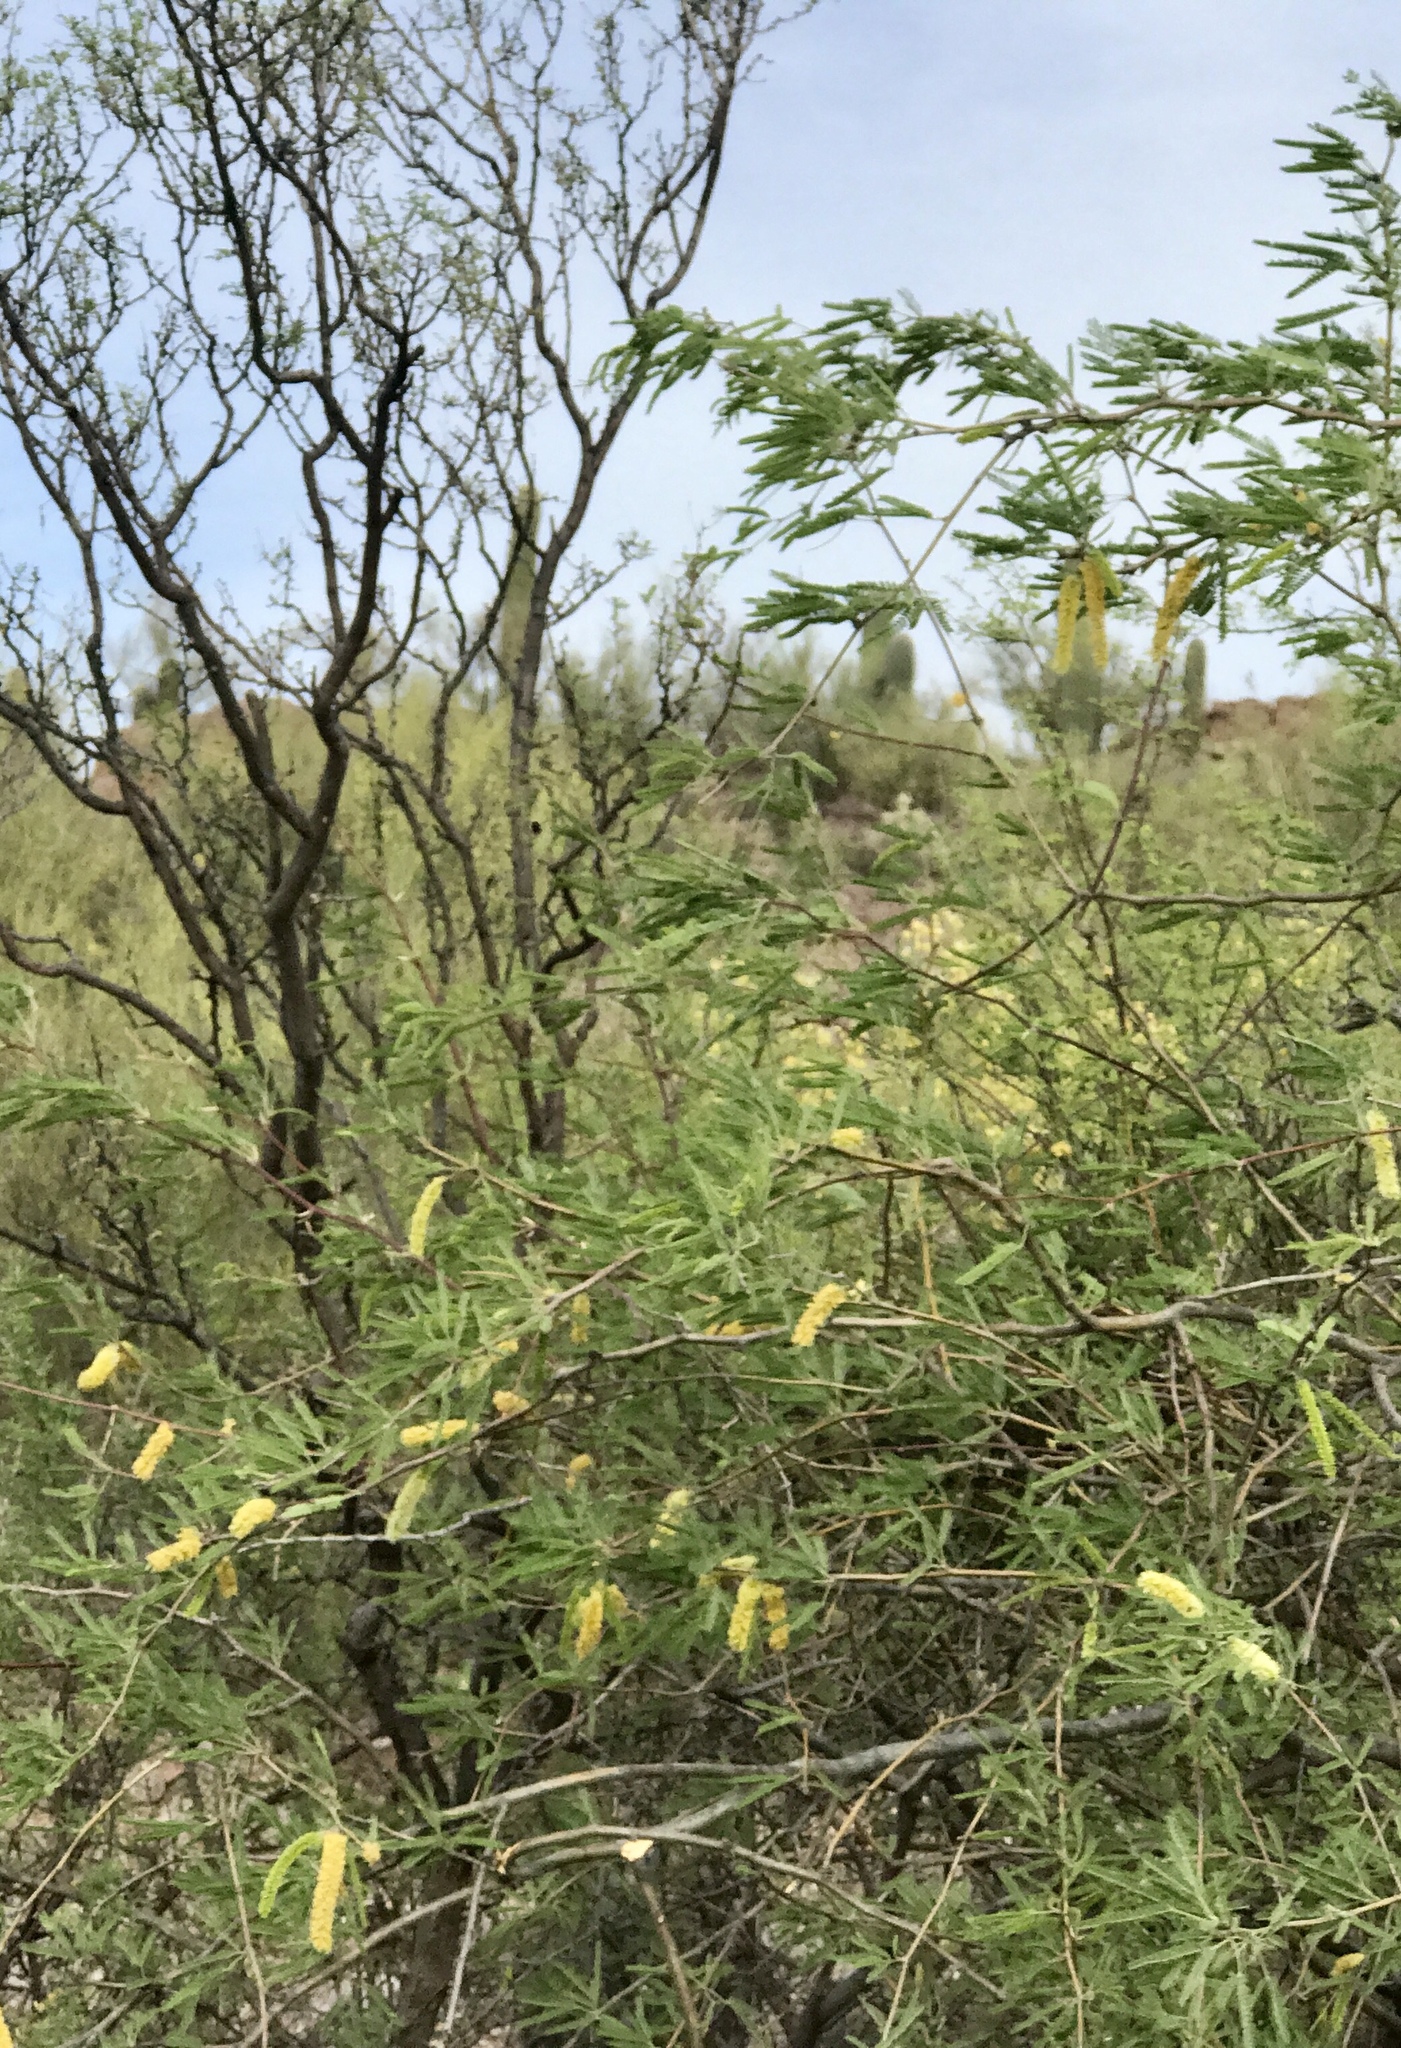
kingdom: Plantae
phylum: Tracheophyta
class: Magnoliopsida
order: Fabales
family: Fabaceae
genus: Prosopis
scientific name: Prosopis velutina
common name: Velvet mesquite
